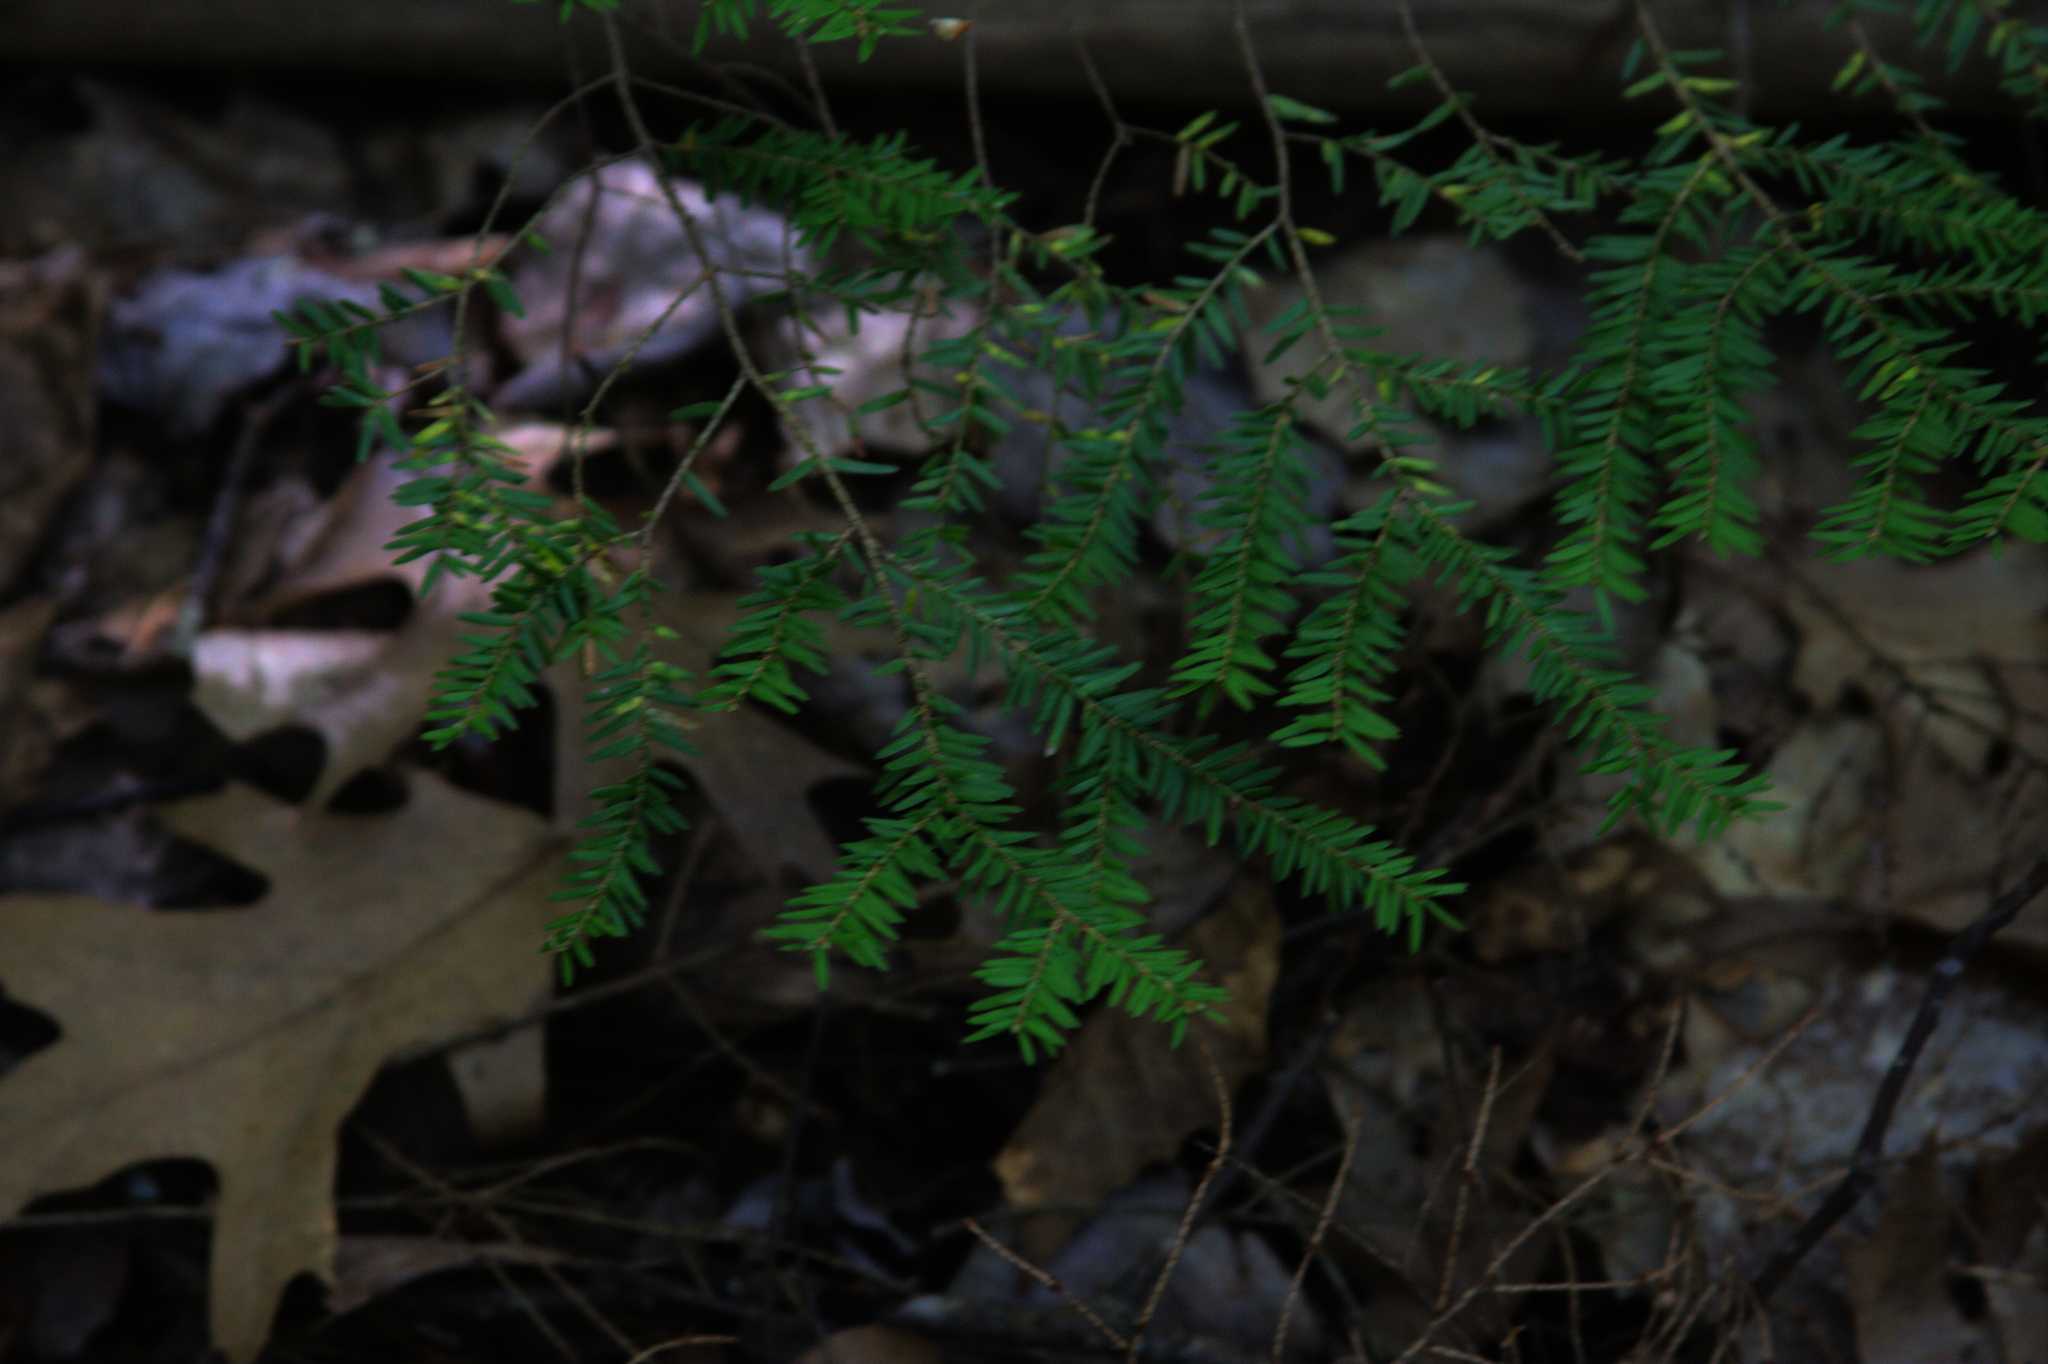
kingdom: Plantae
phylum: Tracheophyta
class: Pinopsida
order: Pinales
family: Pinaceae
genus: Tsuga
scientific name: Tsuga canadensis
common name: Eastern hemlock
